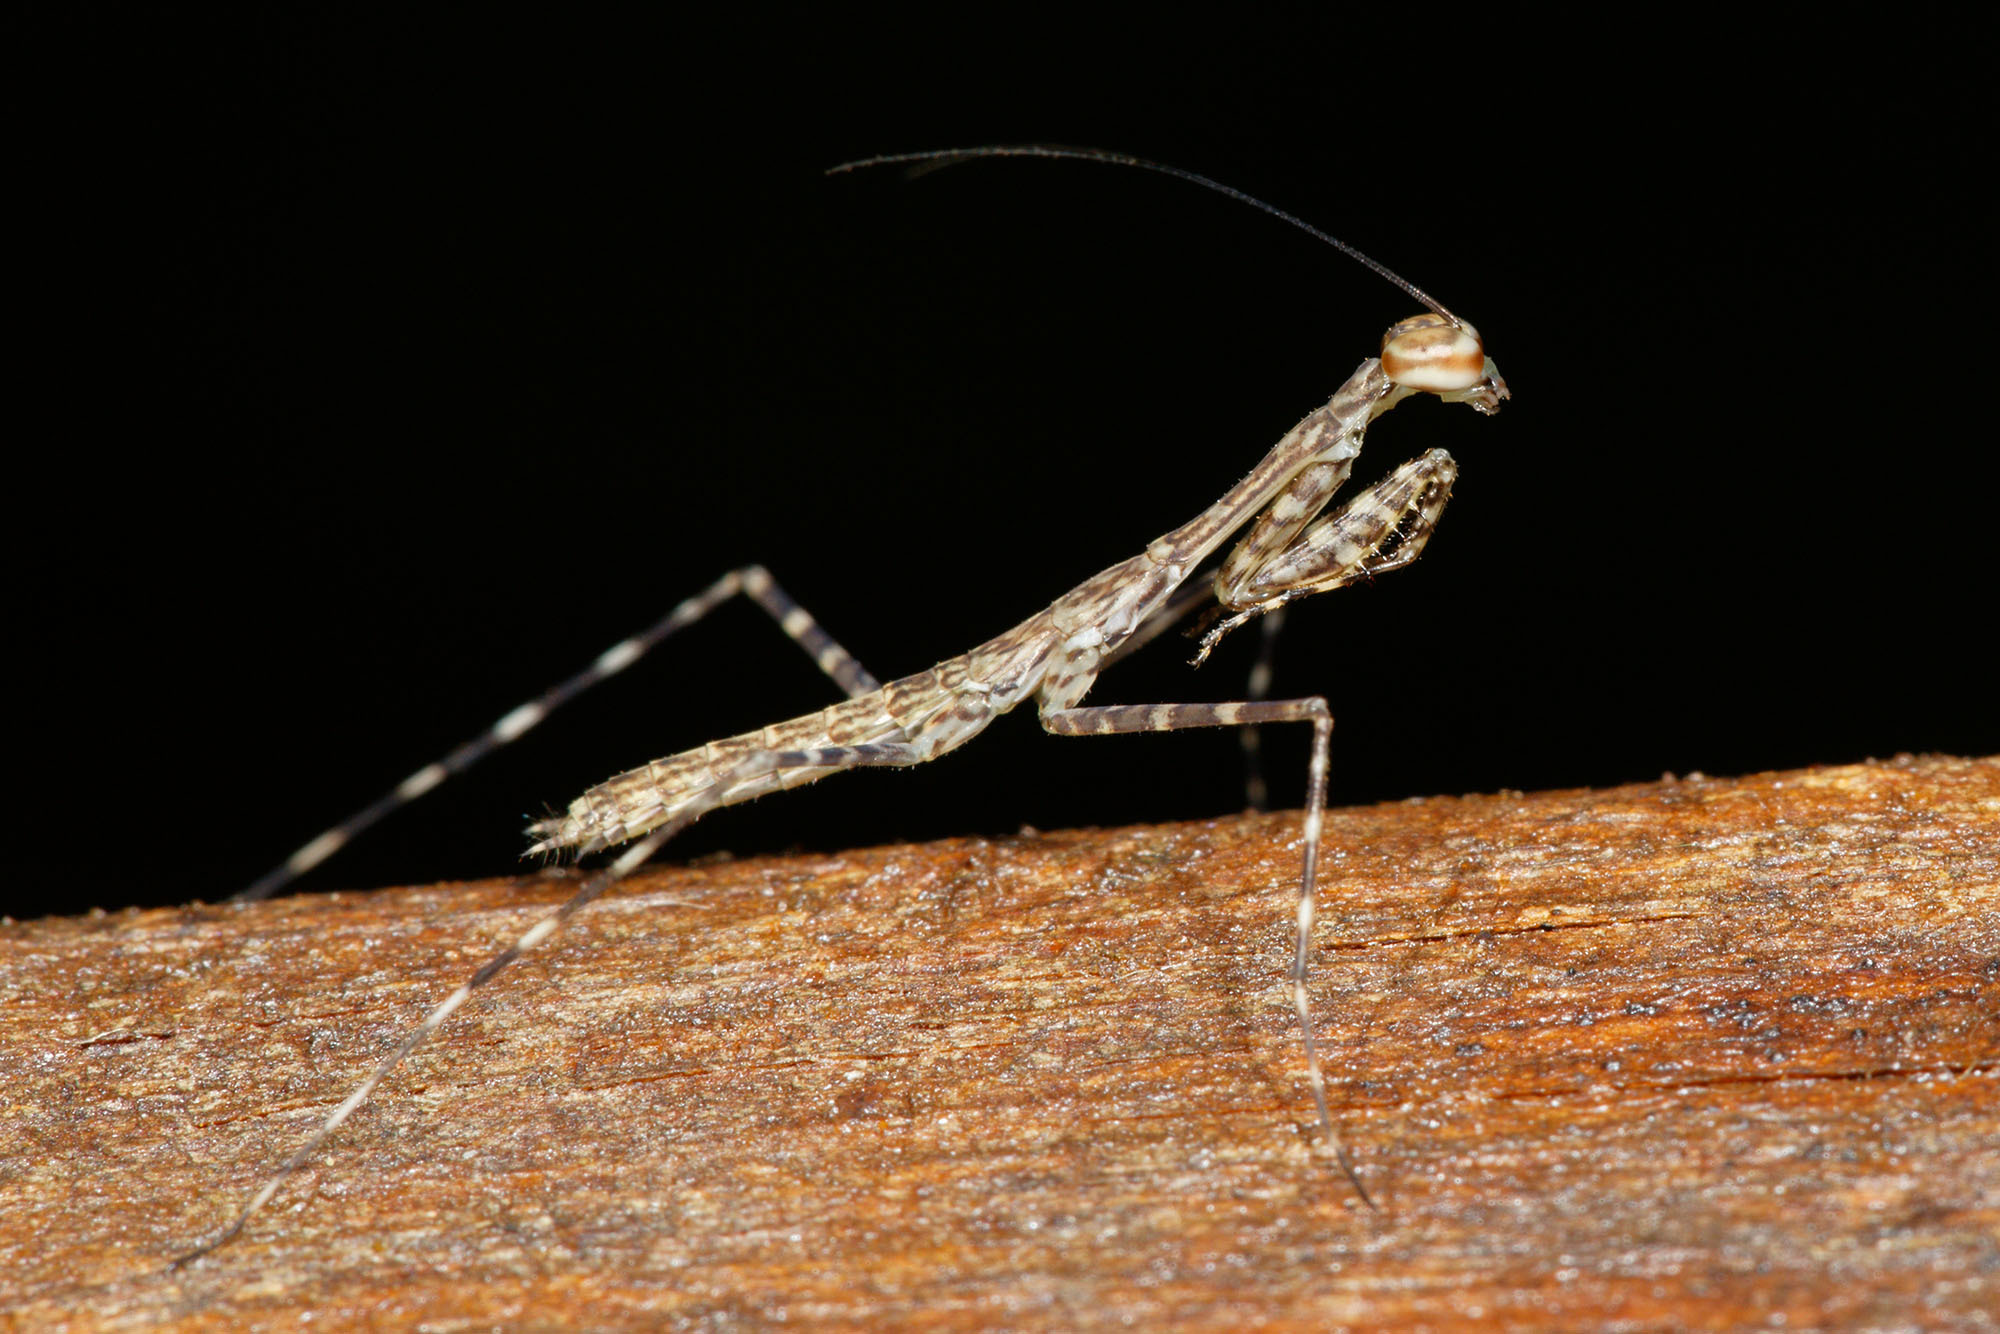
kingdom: Animalia
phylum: Arthropoda
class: Insecta
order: Mantodea
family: Nanomantidae
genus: Ciulfina
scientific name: Ciulfina rentzi
